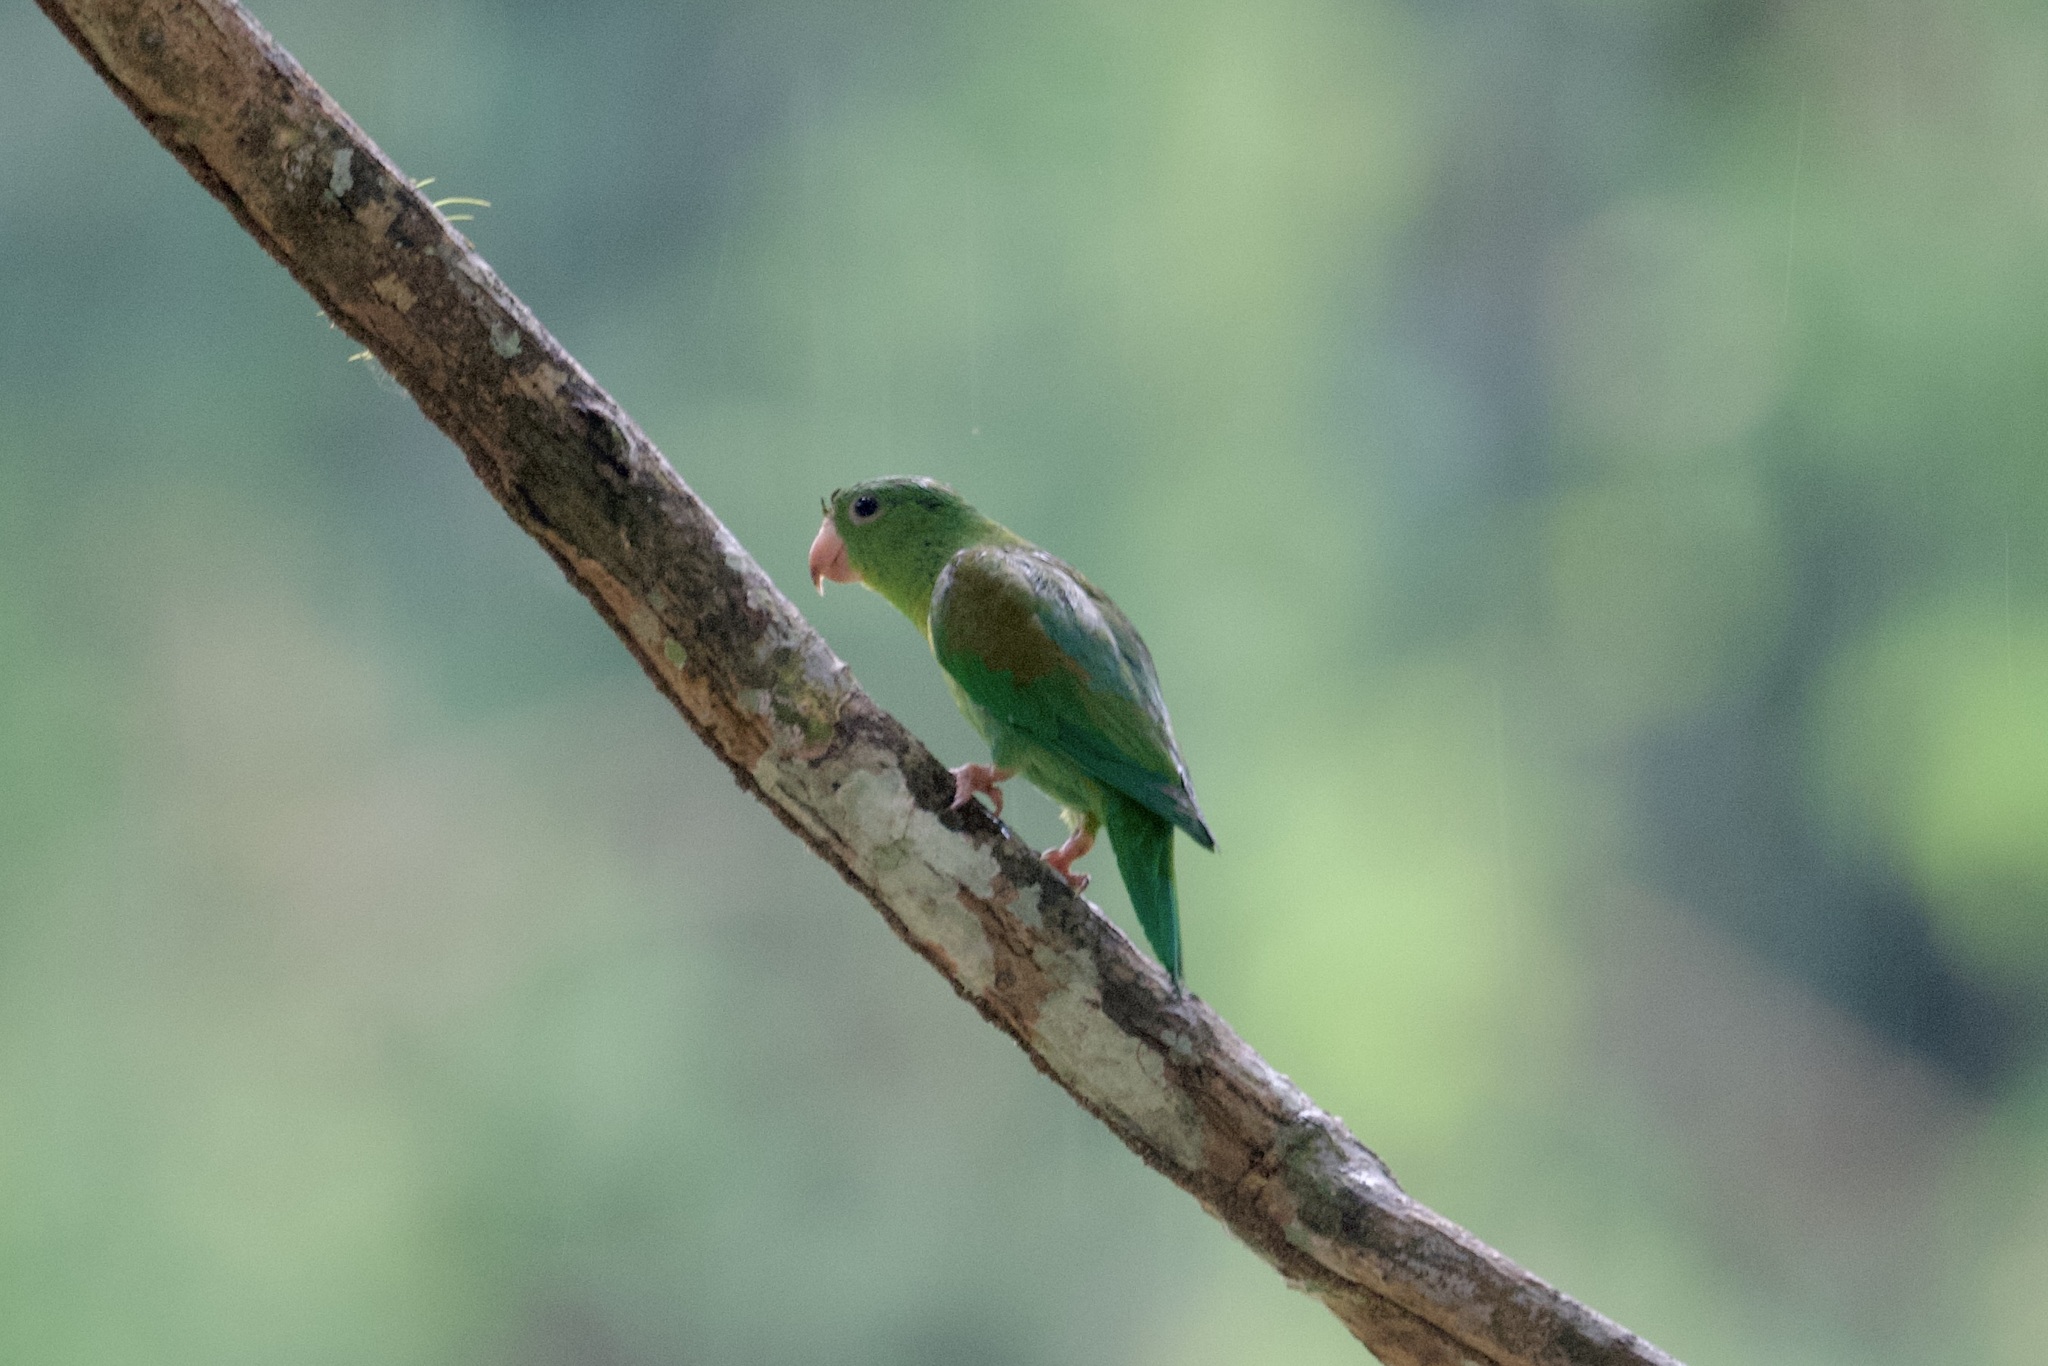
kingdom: Animalia
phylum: Chordata
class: Aves
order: Psittaciformes
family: Psittacidae
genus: Brotogeris
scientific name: Brotogeris jugularis
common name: Orange-chinned parakeet
